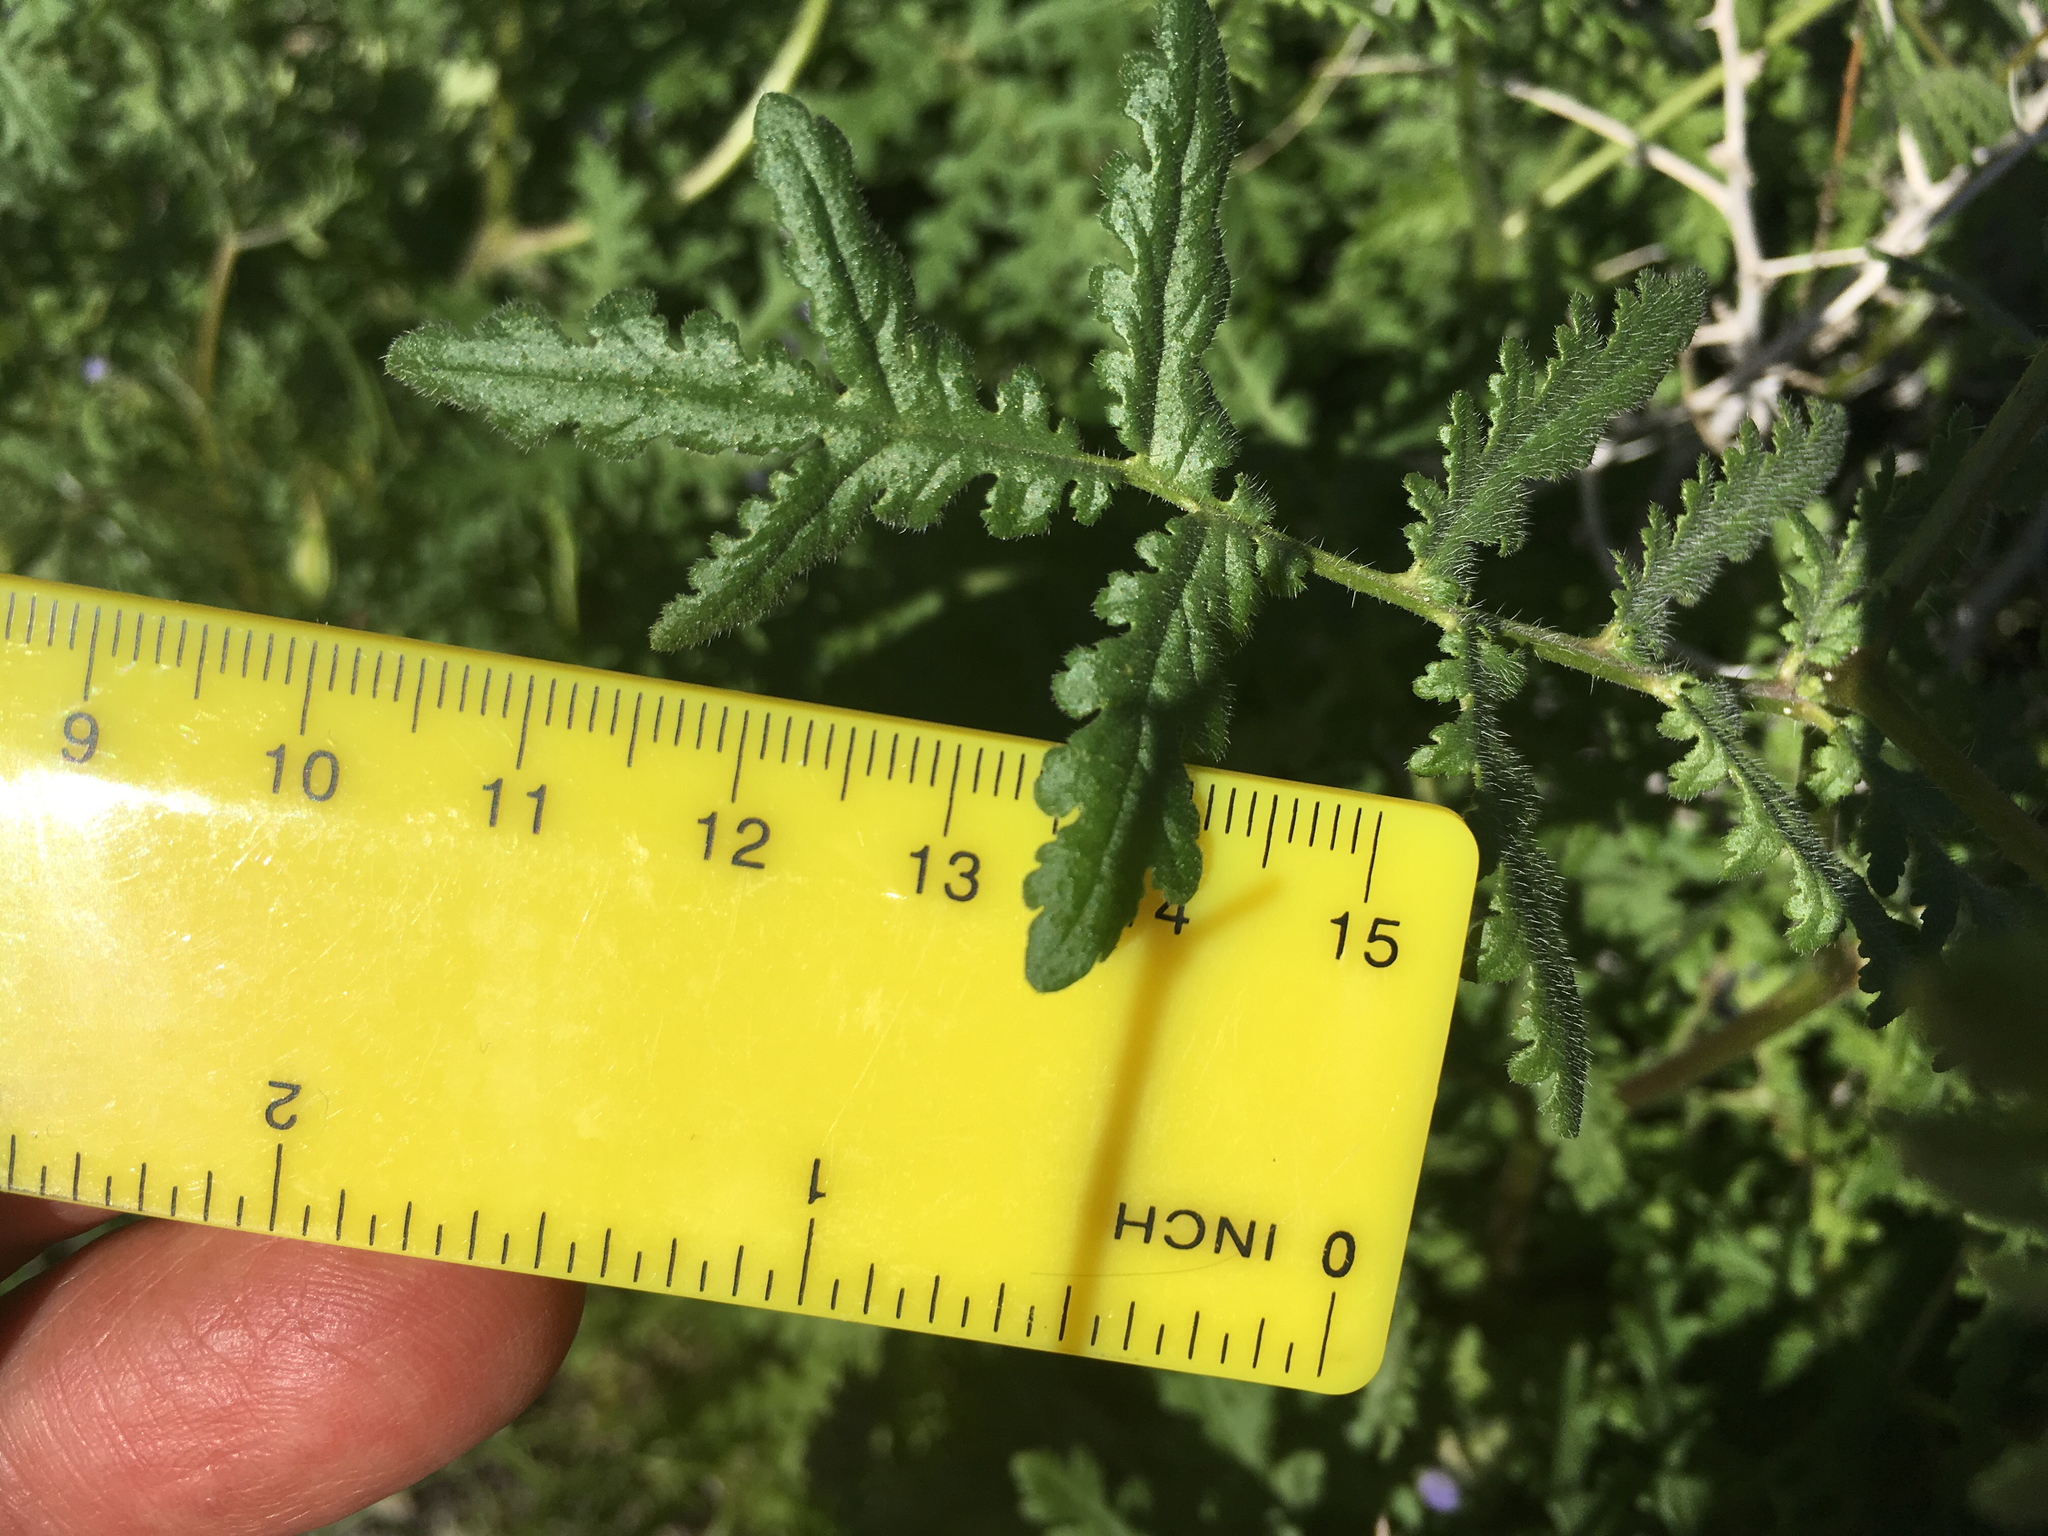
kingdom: Plantae
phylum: Tracheophyta
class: Magnoliopsida
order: Boraginales
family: Hydrophyllaceae
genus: Phacelia
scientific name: Phacelia distans
